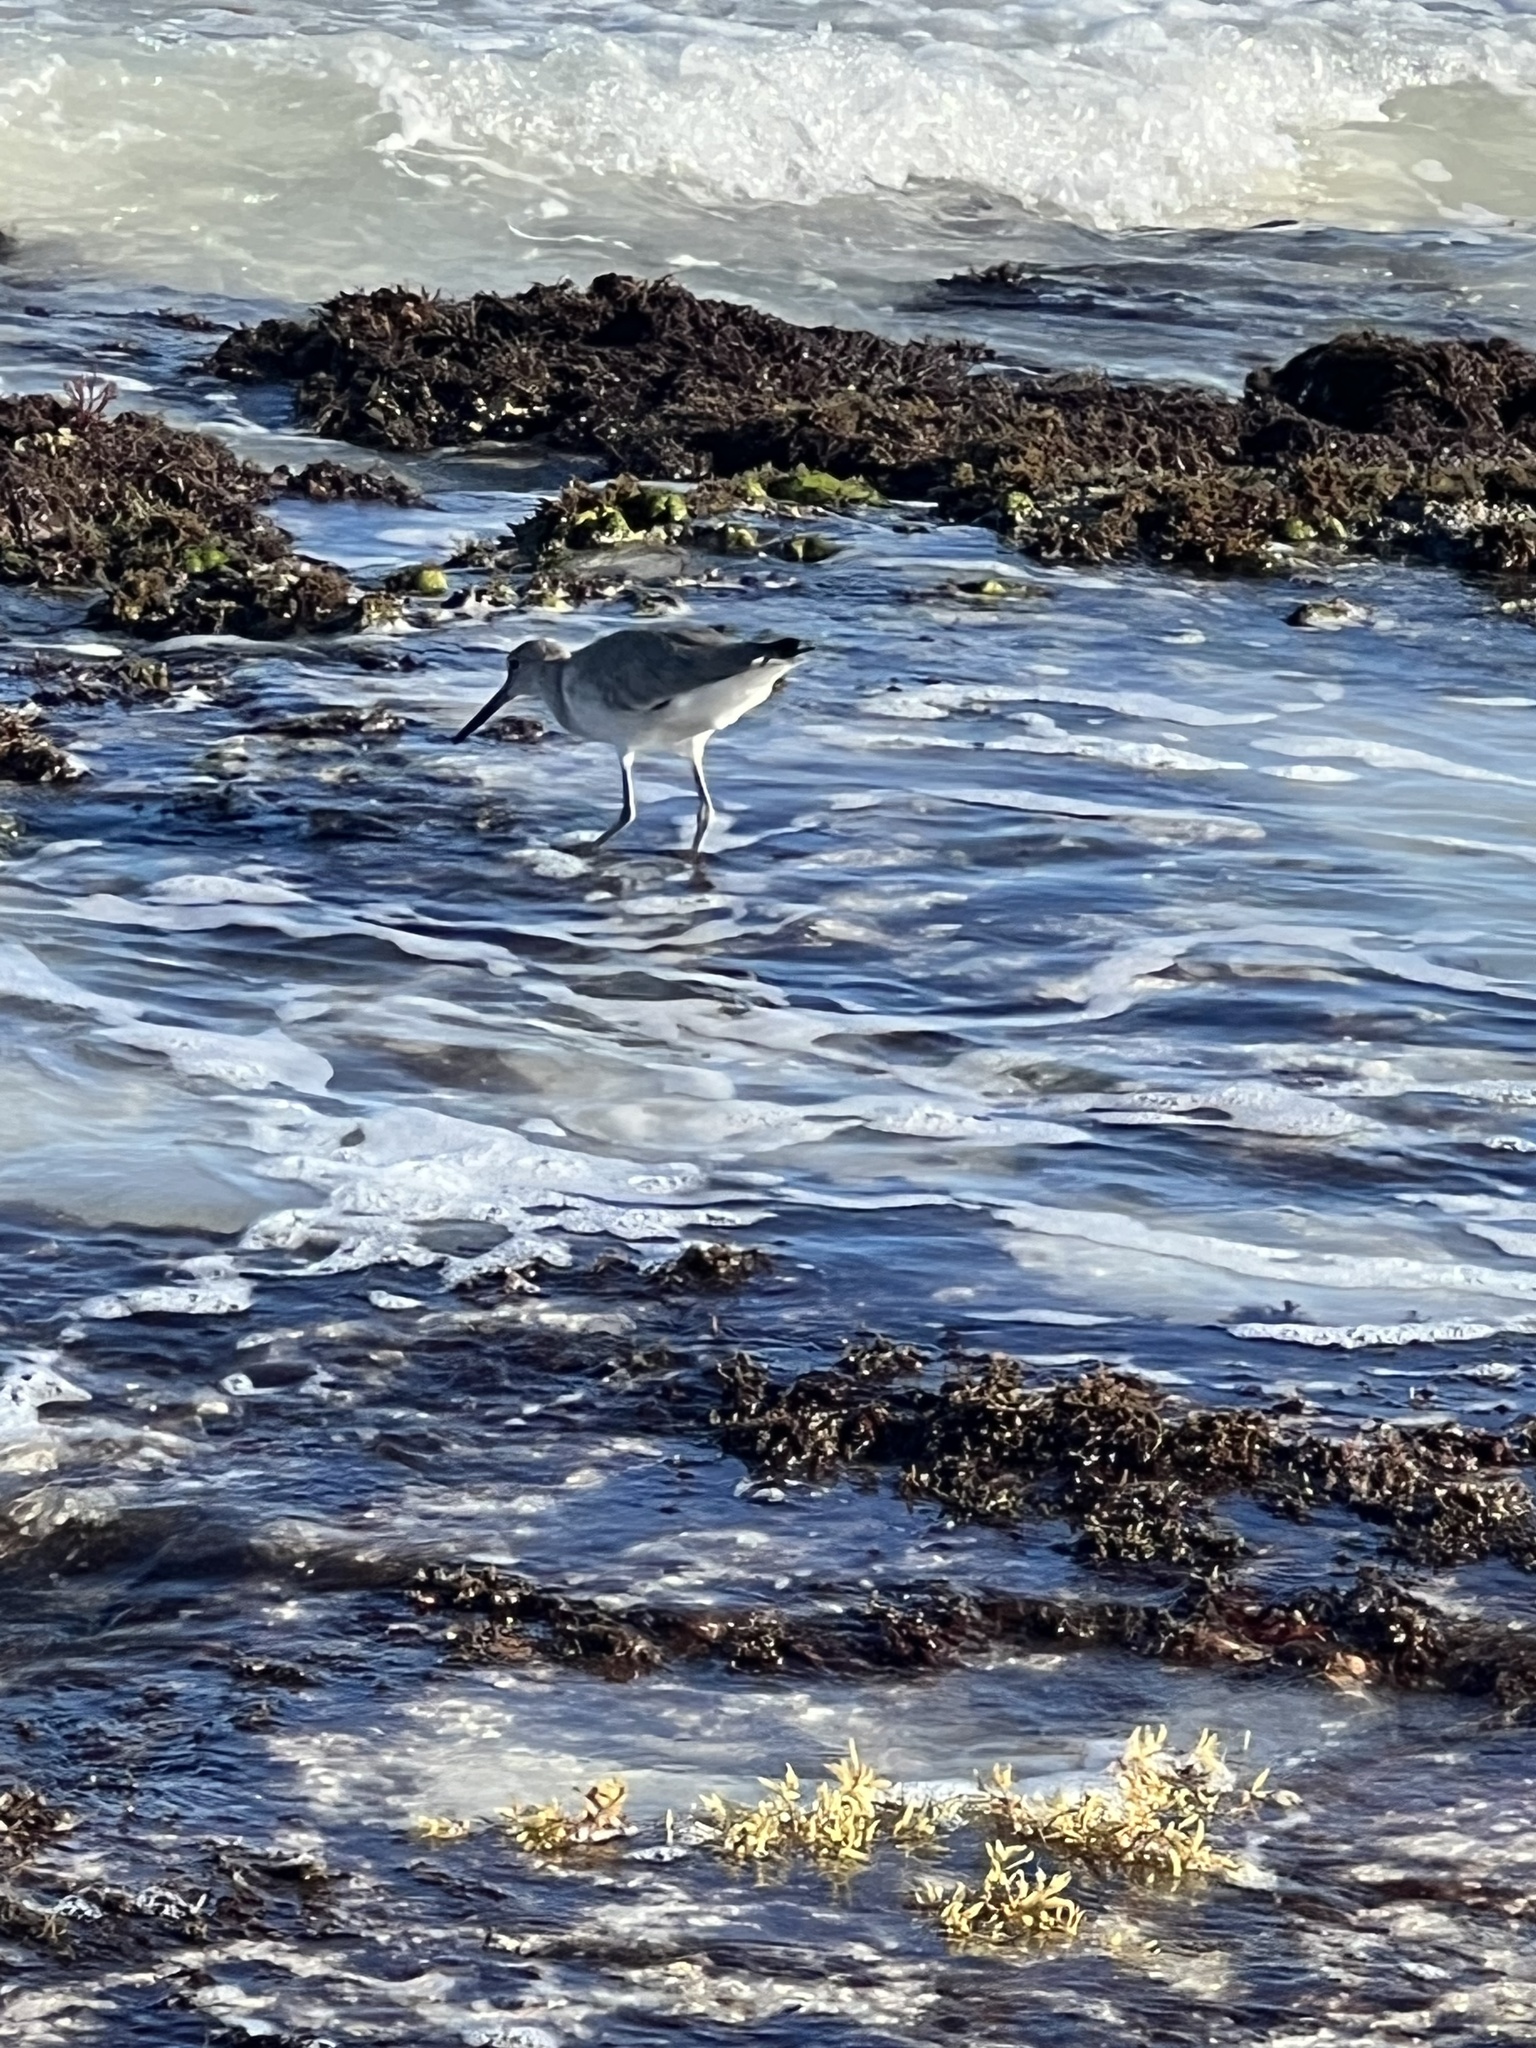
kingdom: Animalia
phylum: Chordata
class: Aves
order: Charadriiformes
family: Scolopacidae
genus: Tringa
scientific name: Tringa semipalmata
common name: Willet
